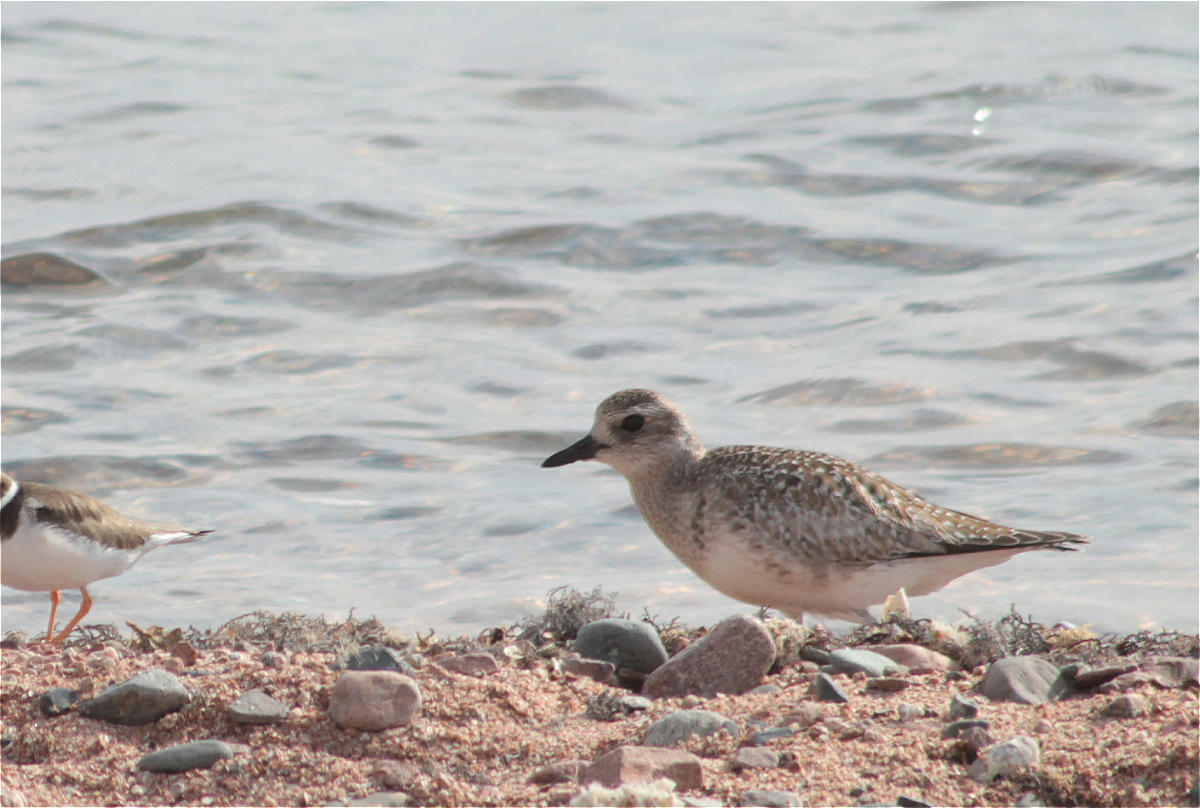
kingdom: Animalia
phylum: Chordata
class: Aves
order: Charadriiformes
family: Charadriidae
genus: Pluvialis
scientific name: Pluvialis squatarola
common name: Grey plover
